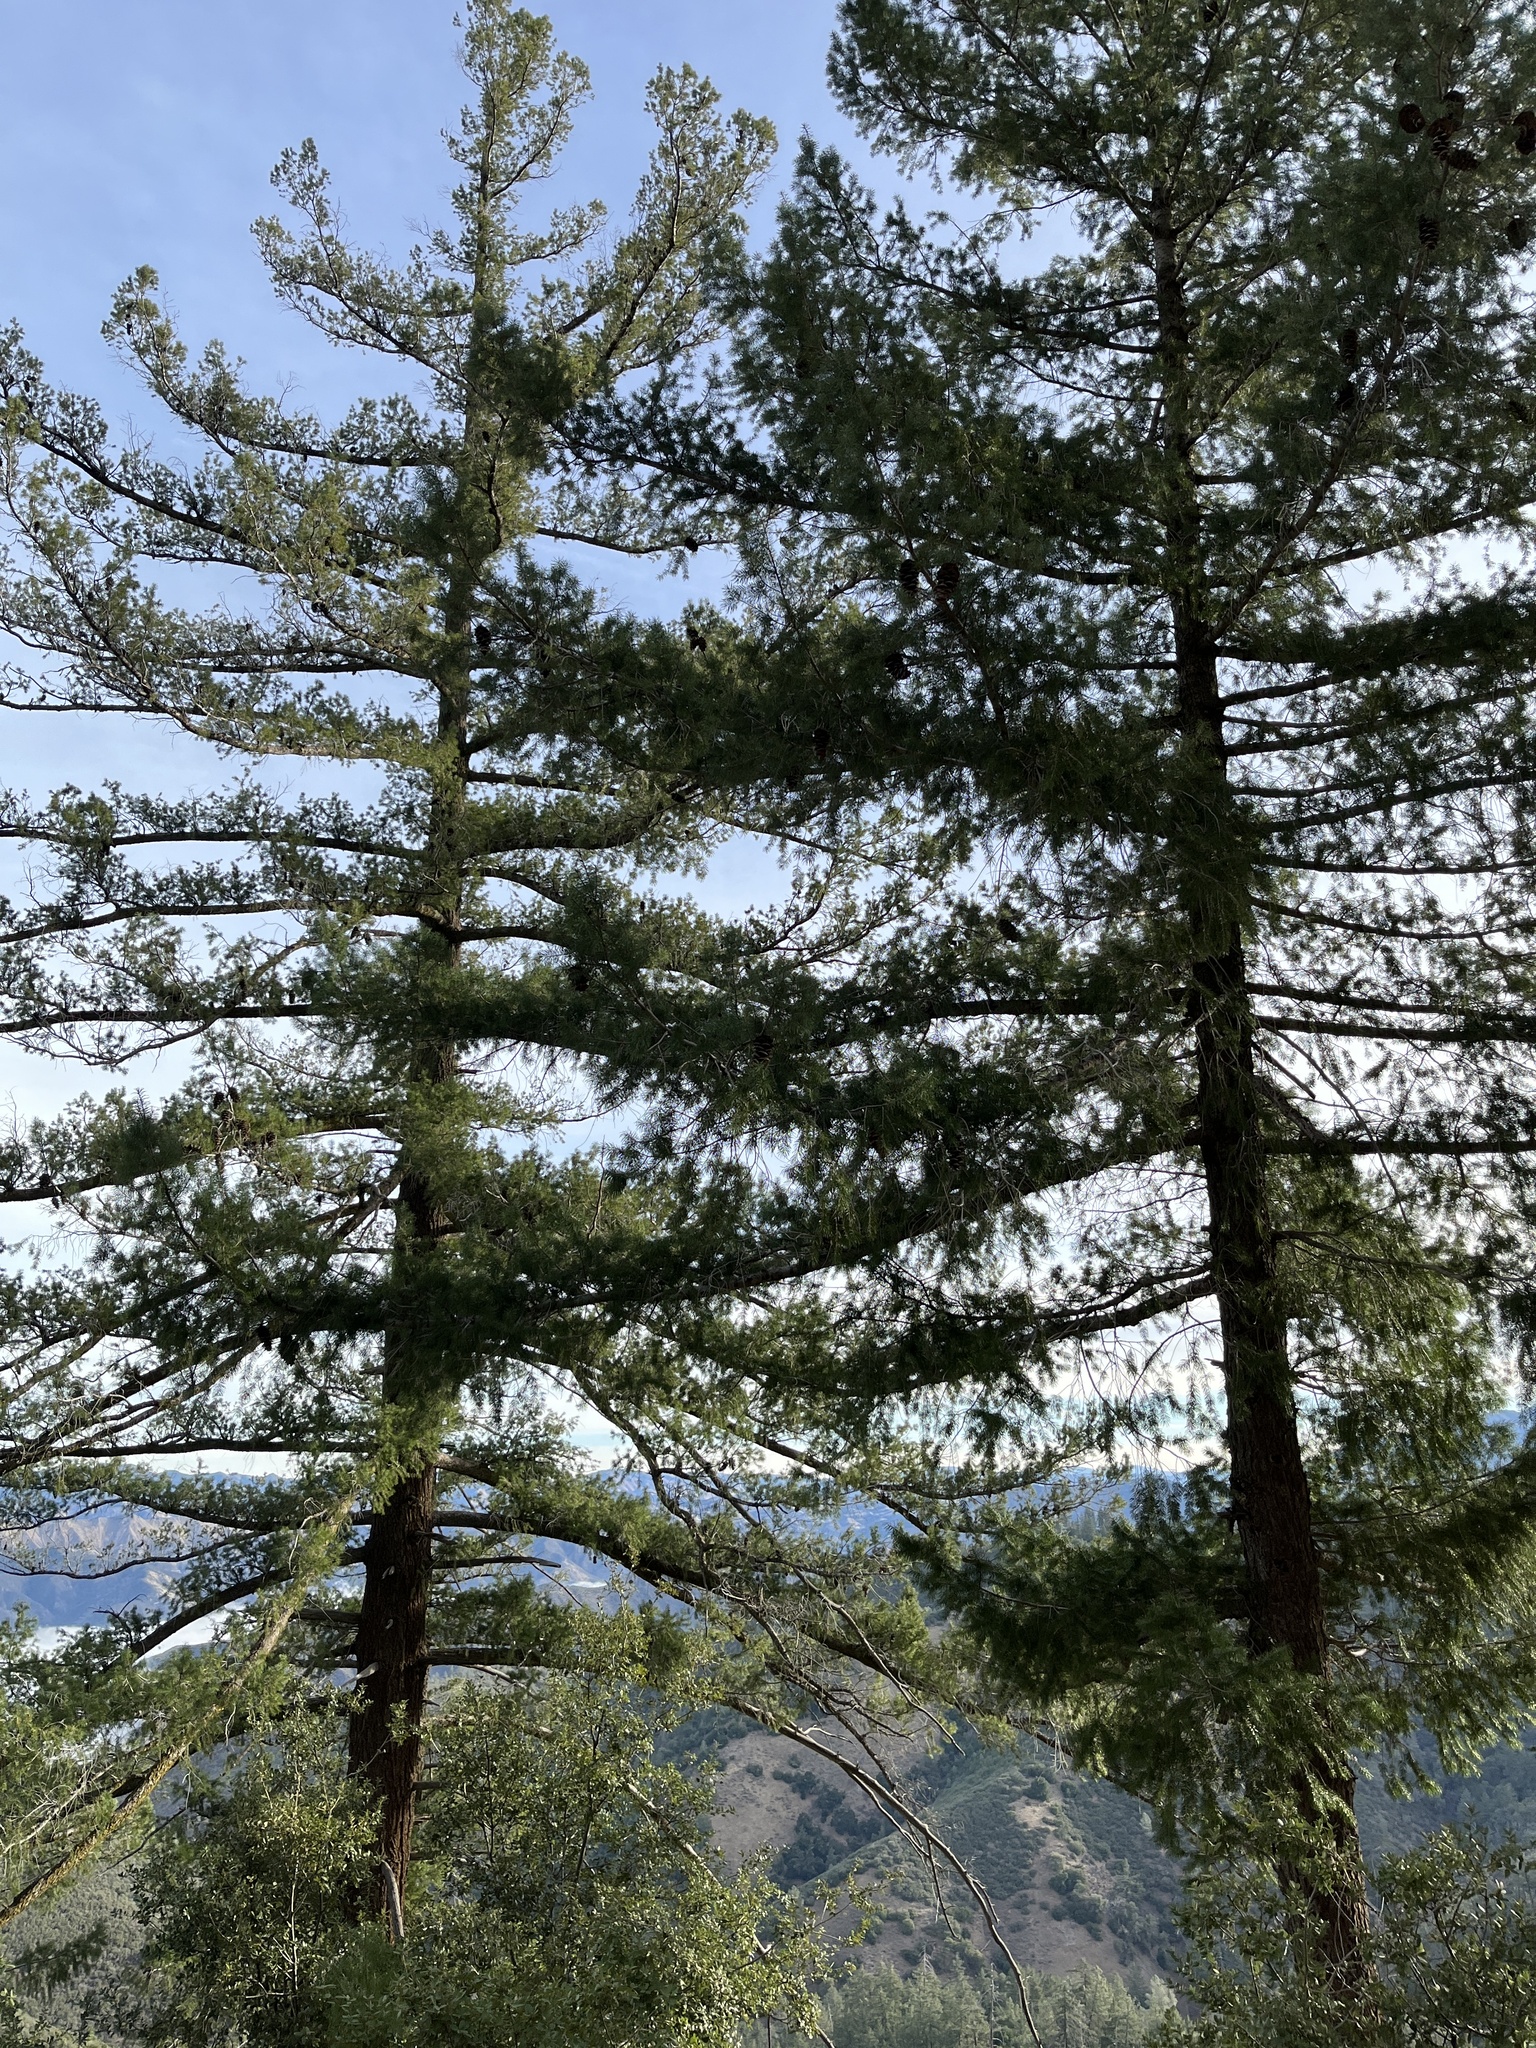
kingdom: Plantae
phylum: Tracheophyta
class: Pinopsida
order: Pinales
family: Pinaceae
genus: Pseudotsuga
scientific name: Pseudotsuga macrocarpa
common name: Big-cone douglas-fir
